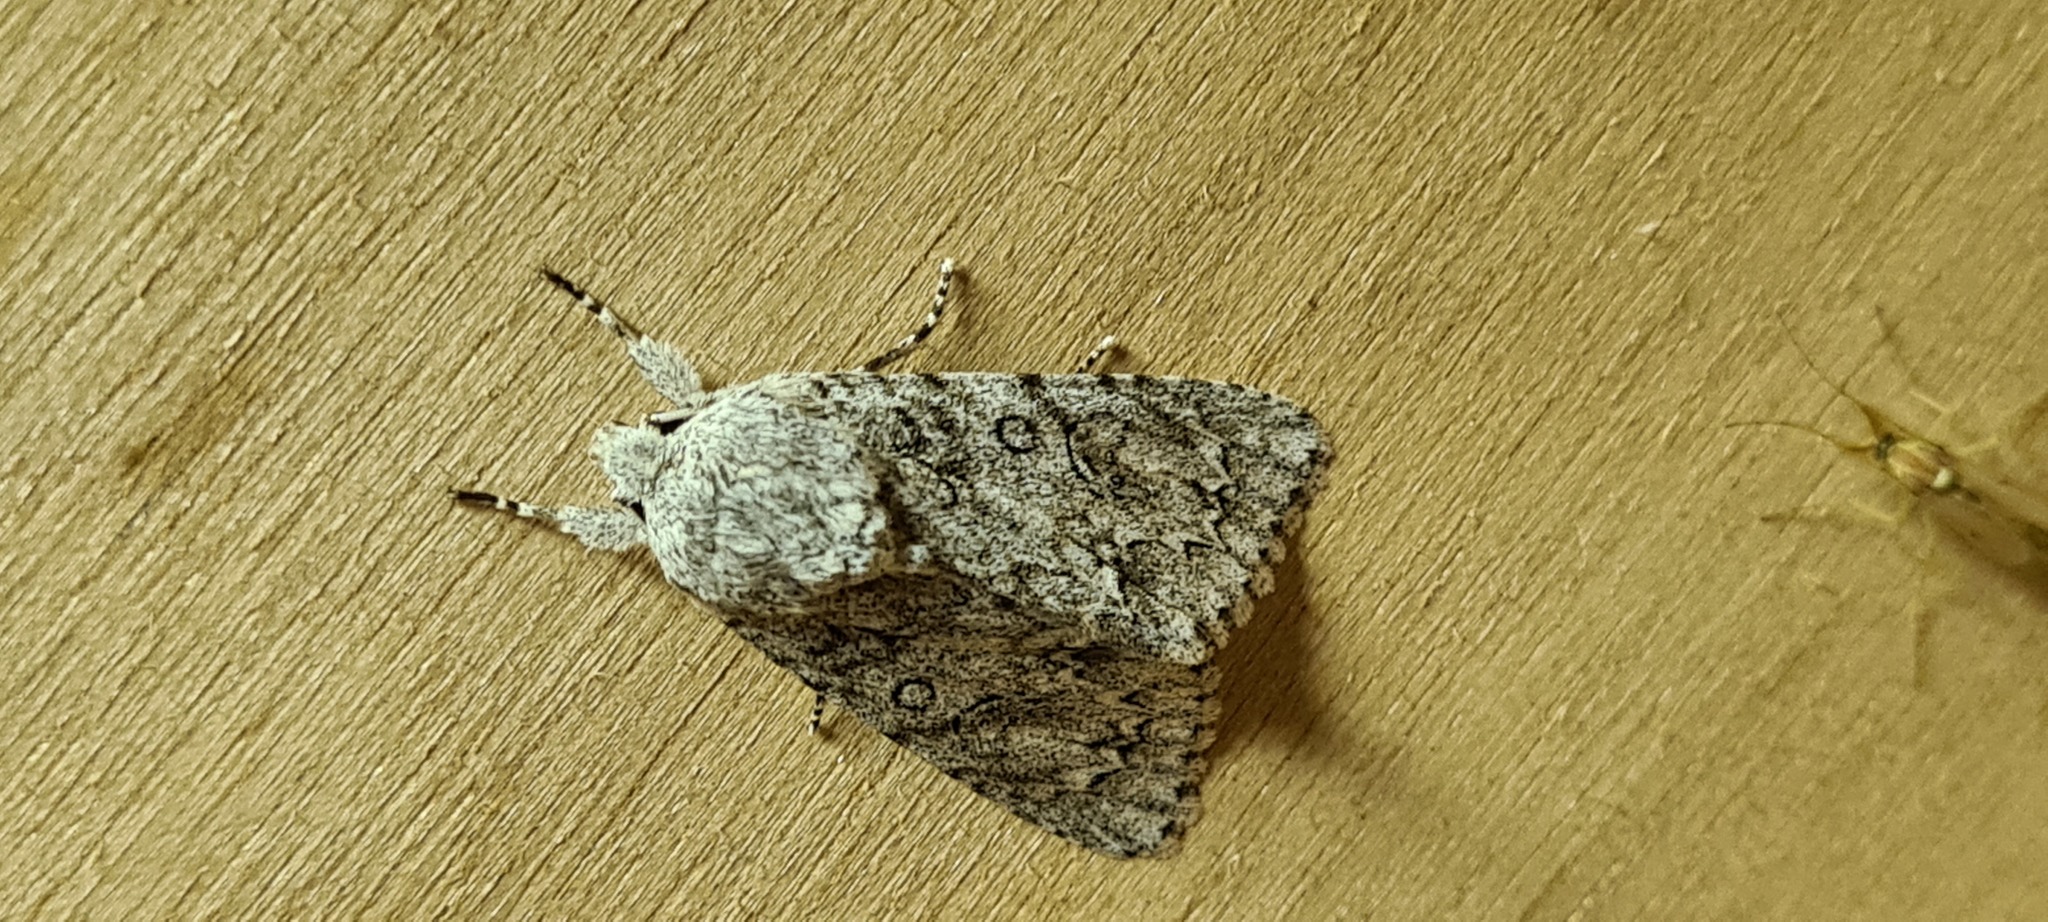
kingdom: Animalia
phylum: Arthropoda
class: Insecta
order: Lepidoptera
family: Noctuidae
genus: Acronicta
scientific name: Acronicta aceris
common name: Sycamore
